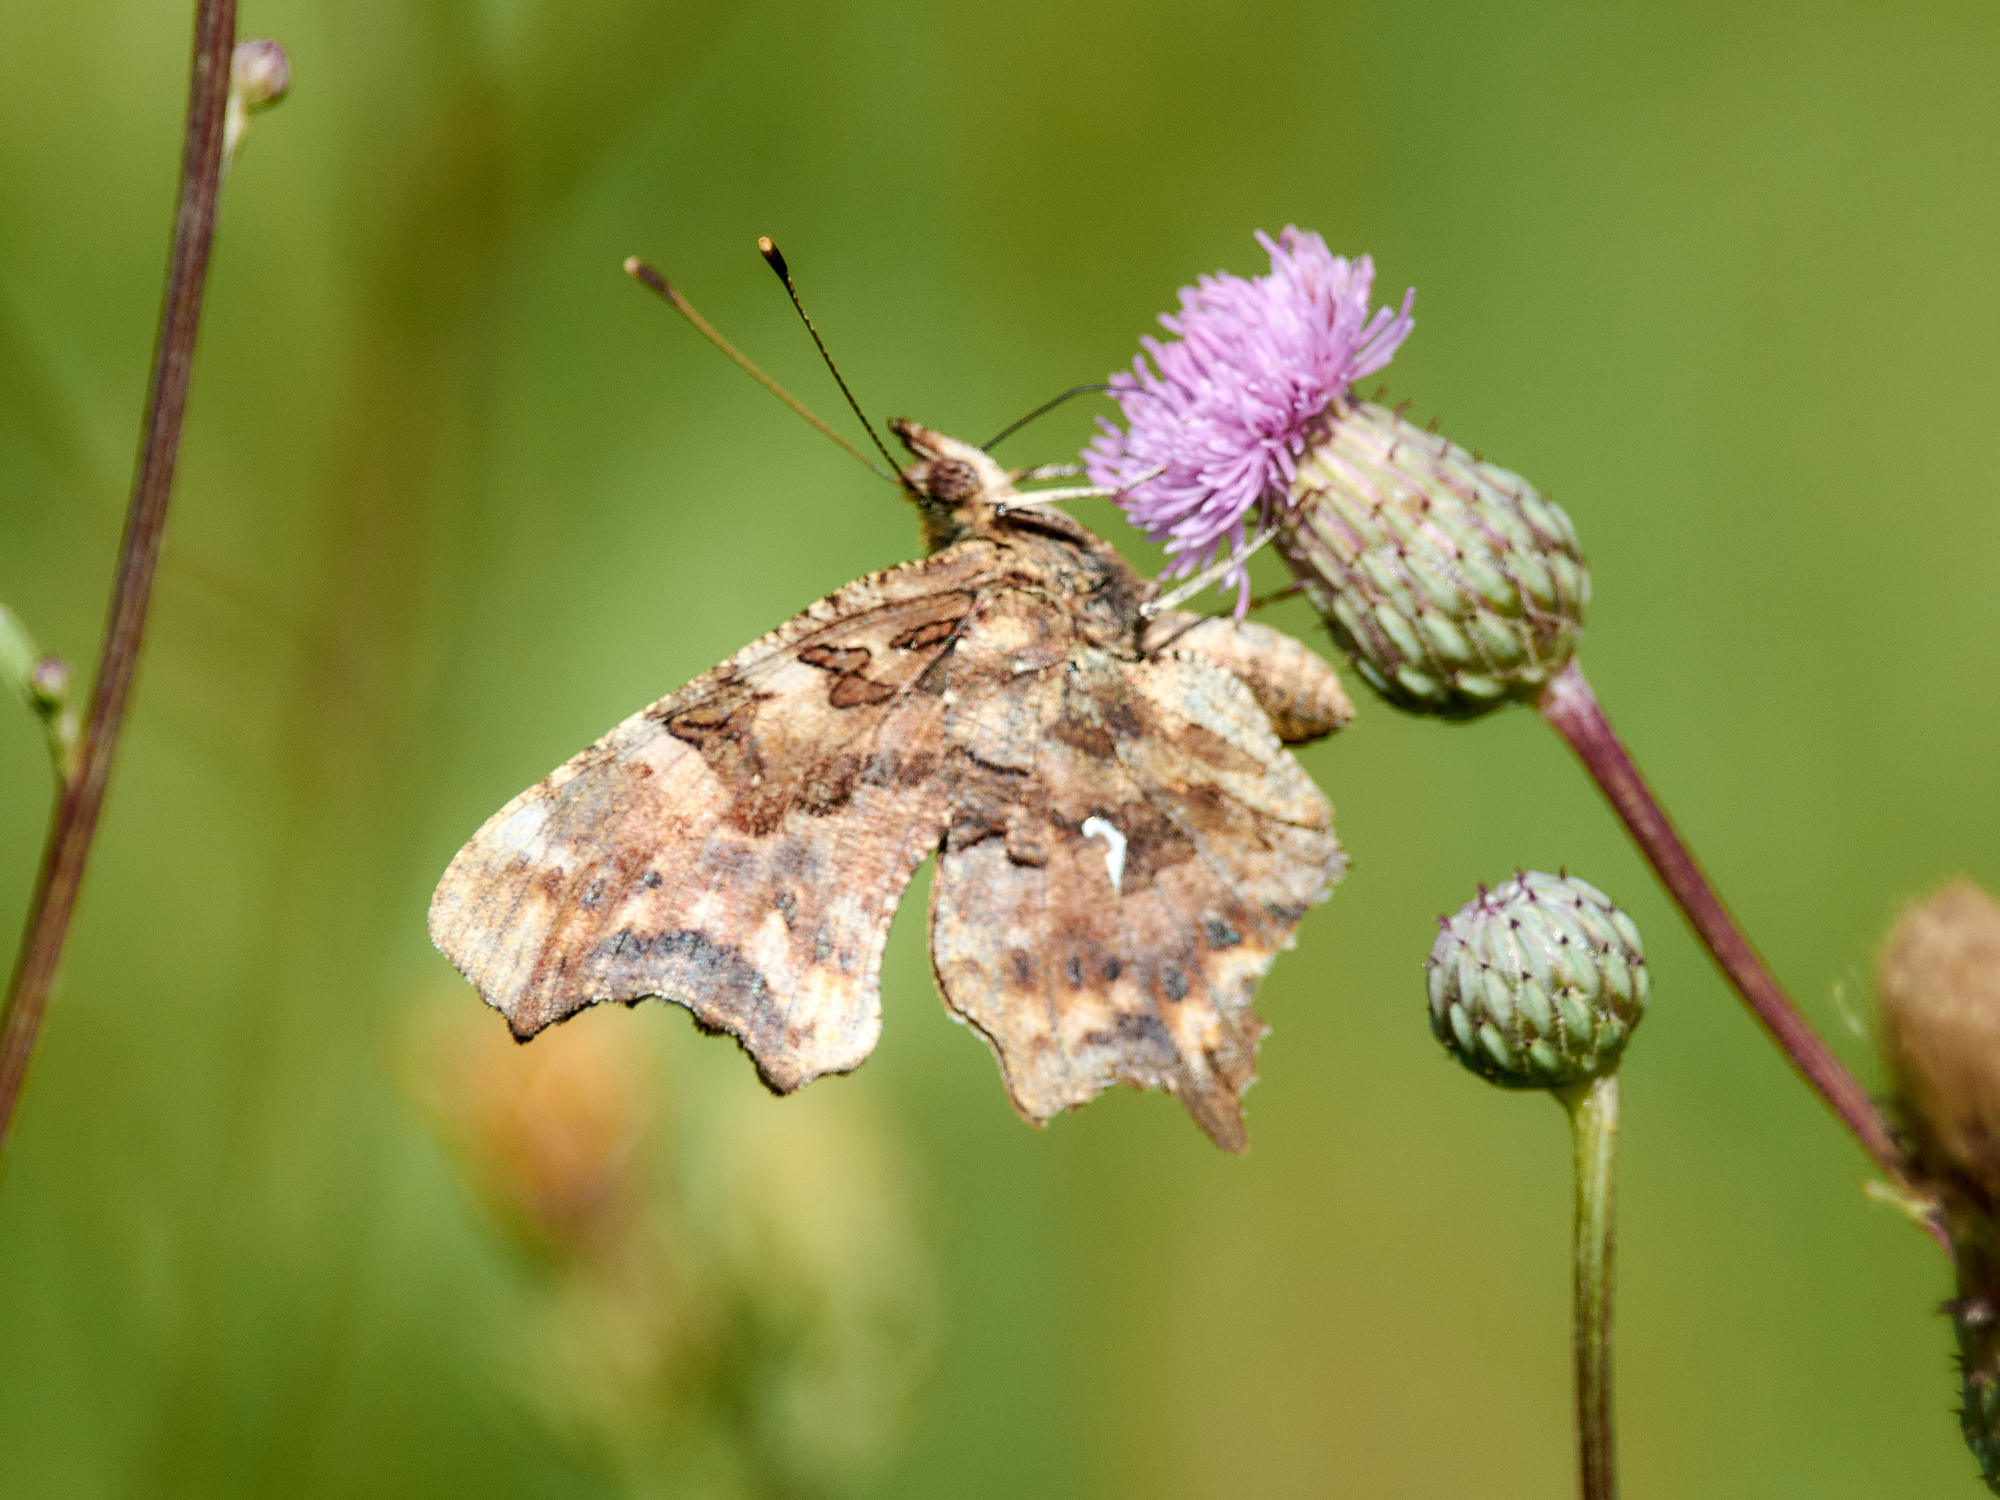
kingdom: Animalia
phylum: Arthropoda
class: Insecta
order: Lepidoptera
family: Nymphalidae
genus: Polygonia
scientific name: Polygonia c-album
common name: Comma
